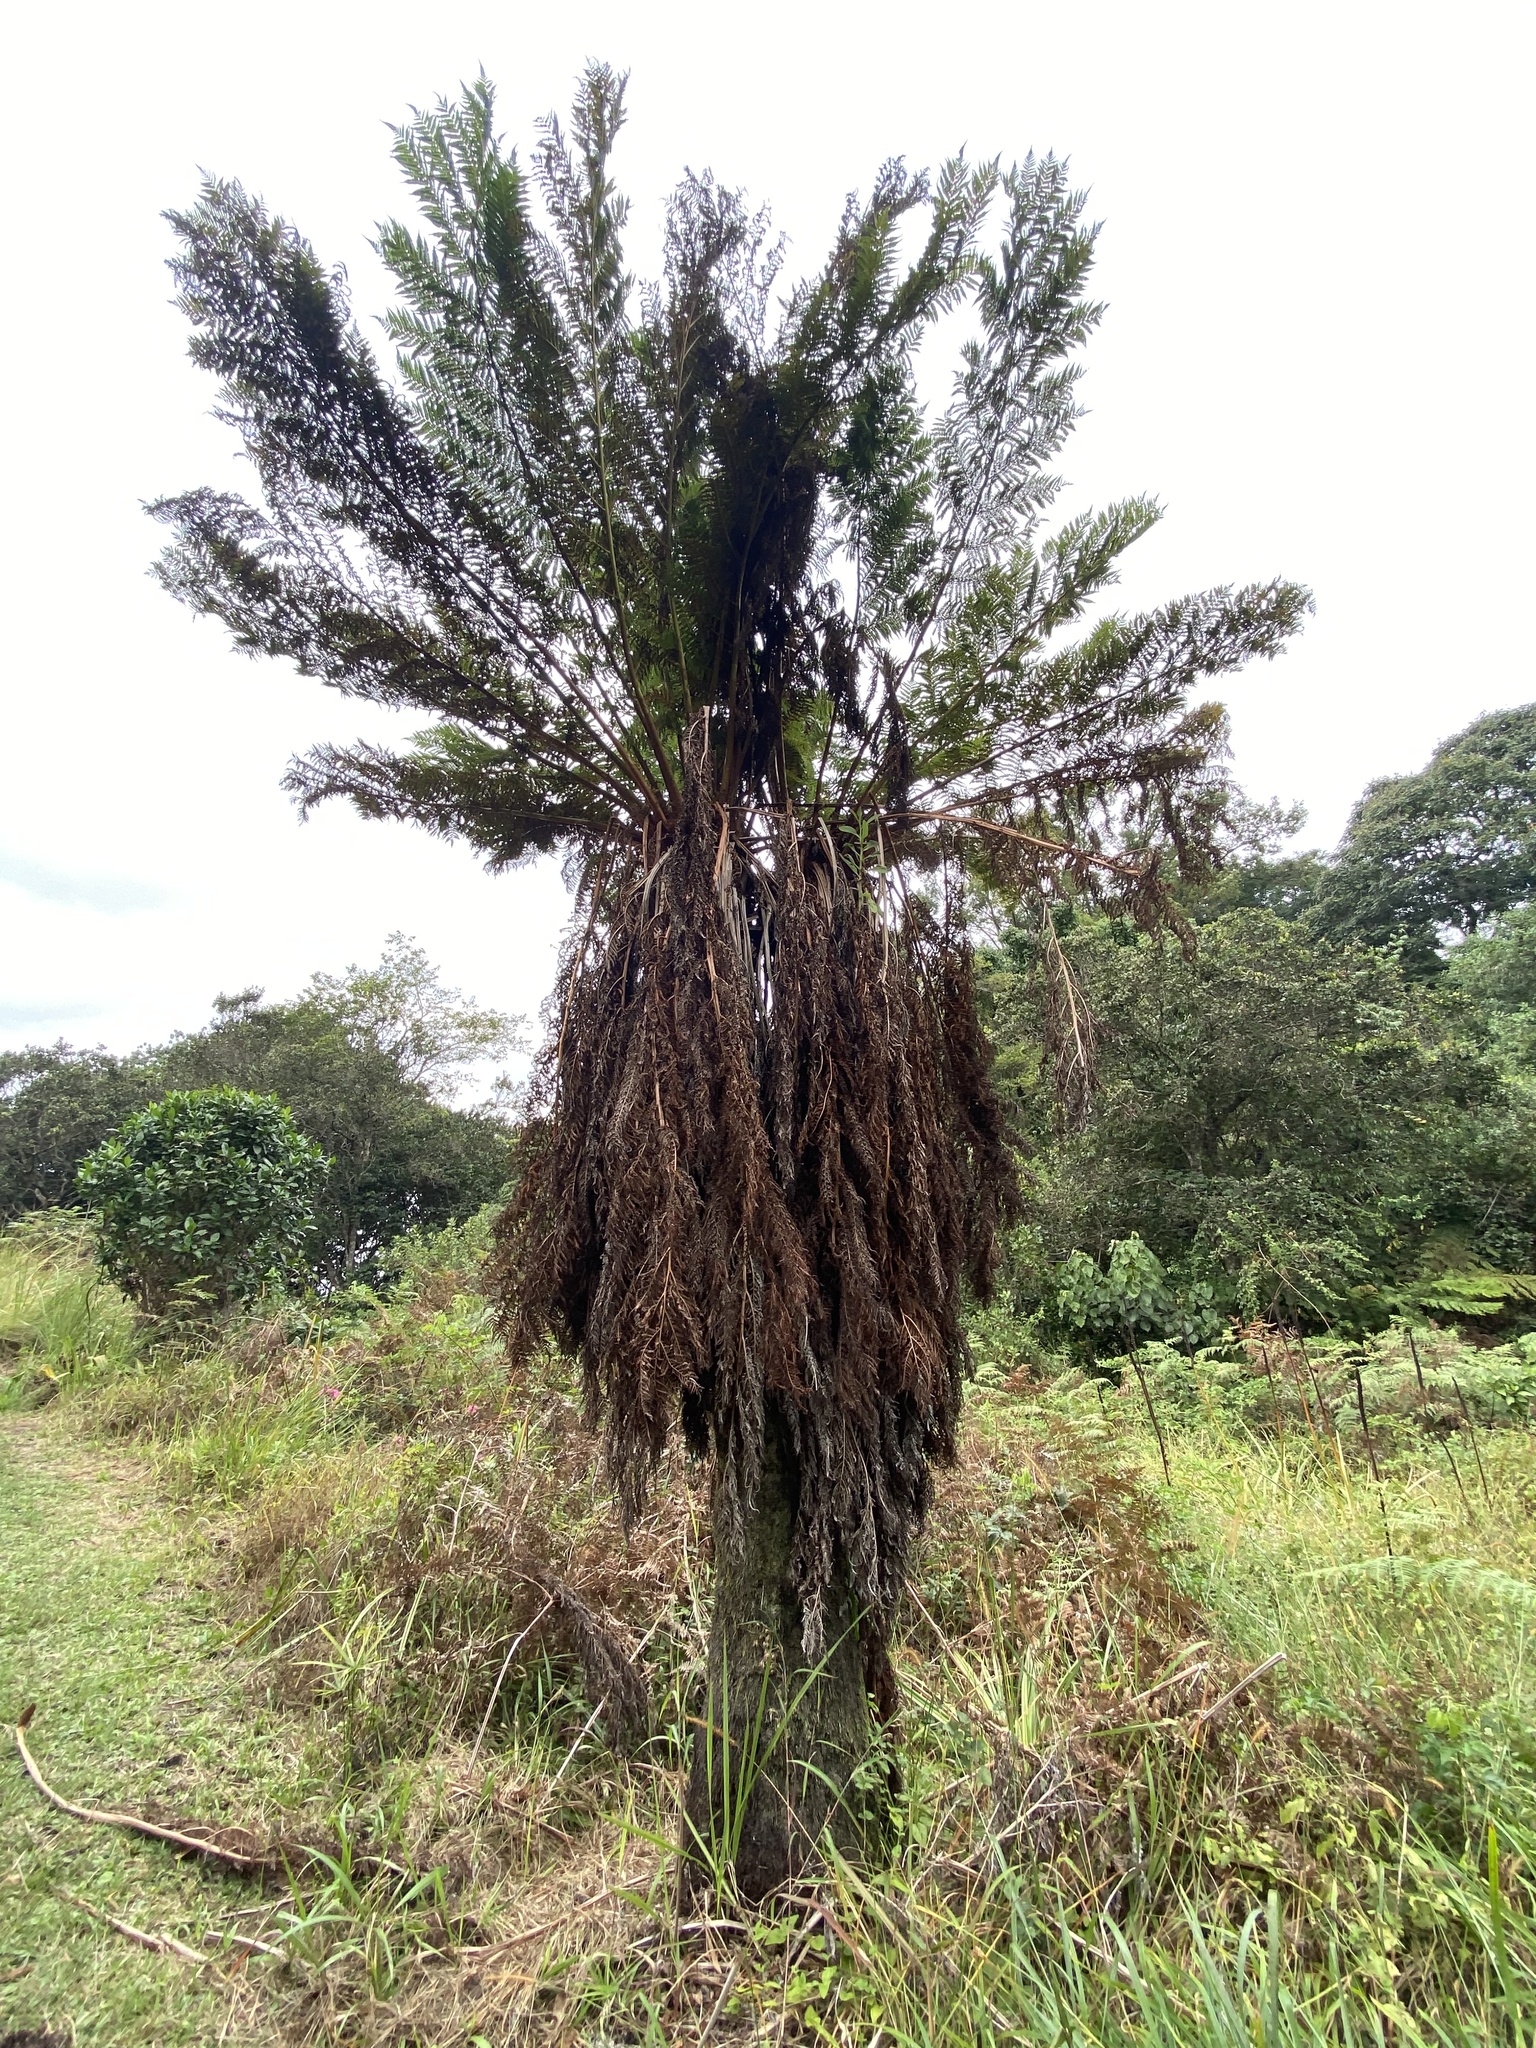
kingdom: Plantae
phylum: Tracheophyta
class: Polypodiopsida
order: Cyatheales
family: Cyatheaceae
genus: Alsophila
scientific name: Alsophila dregei
